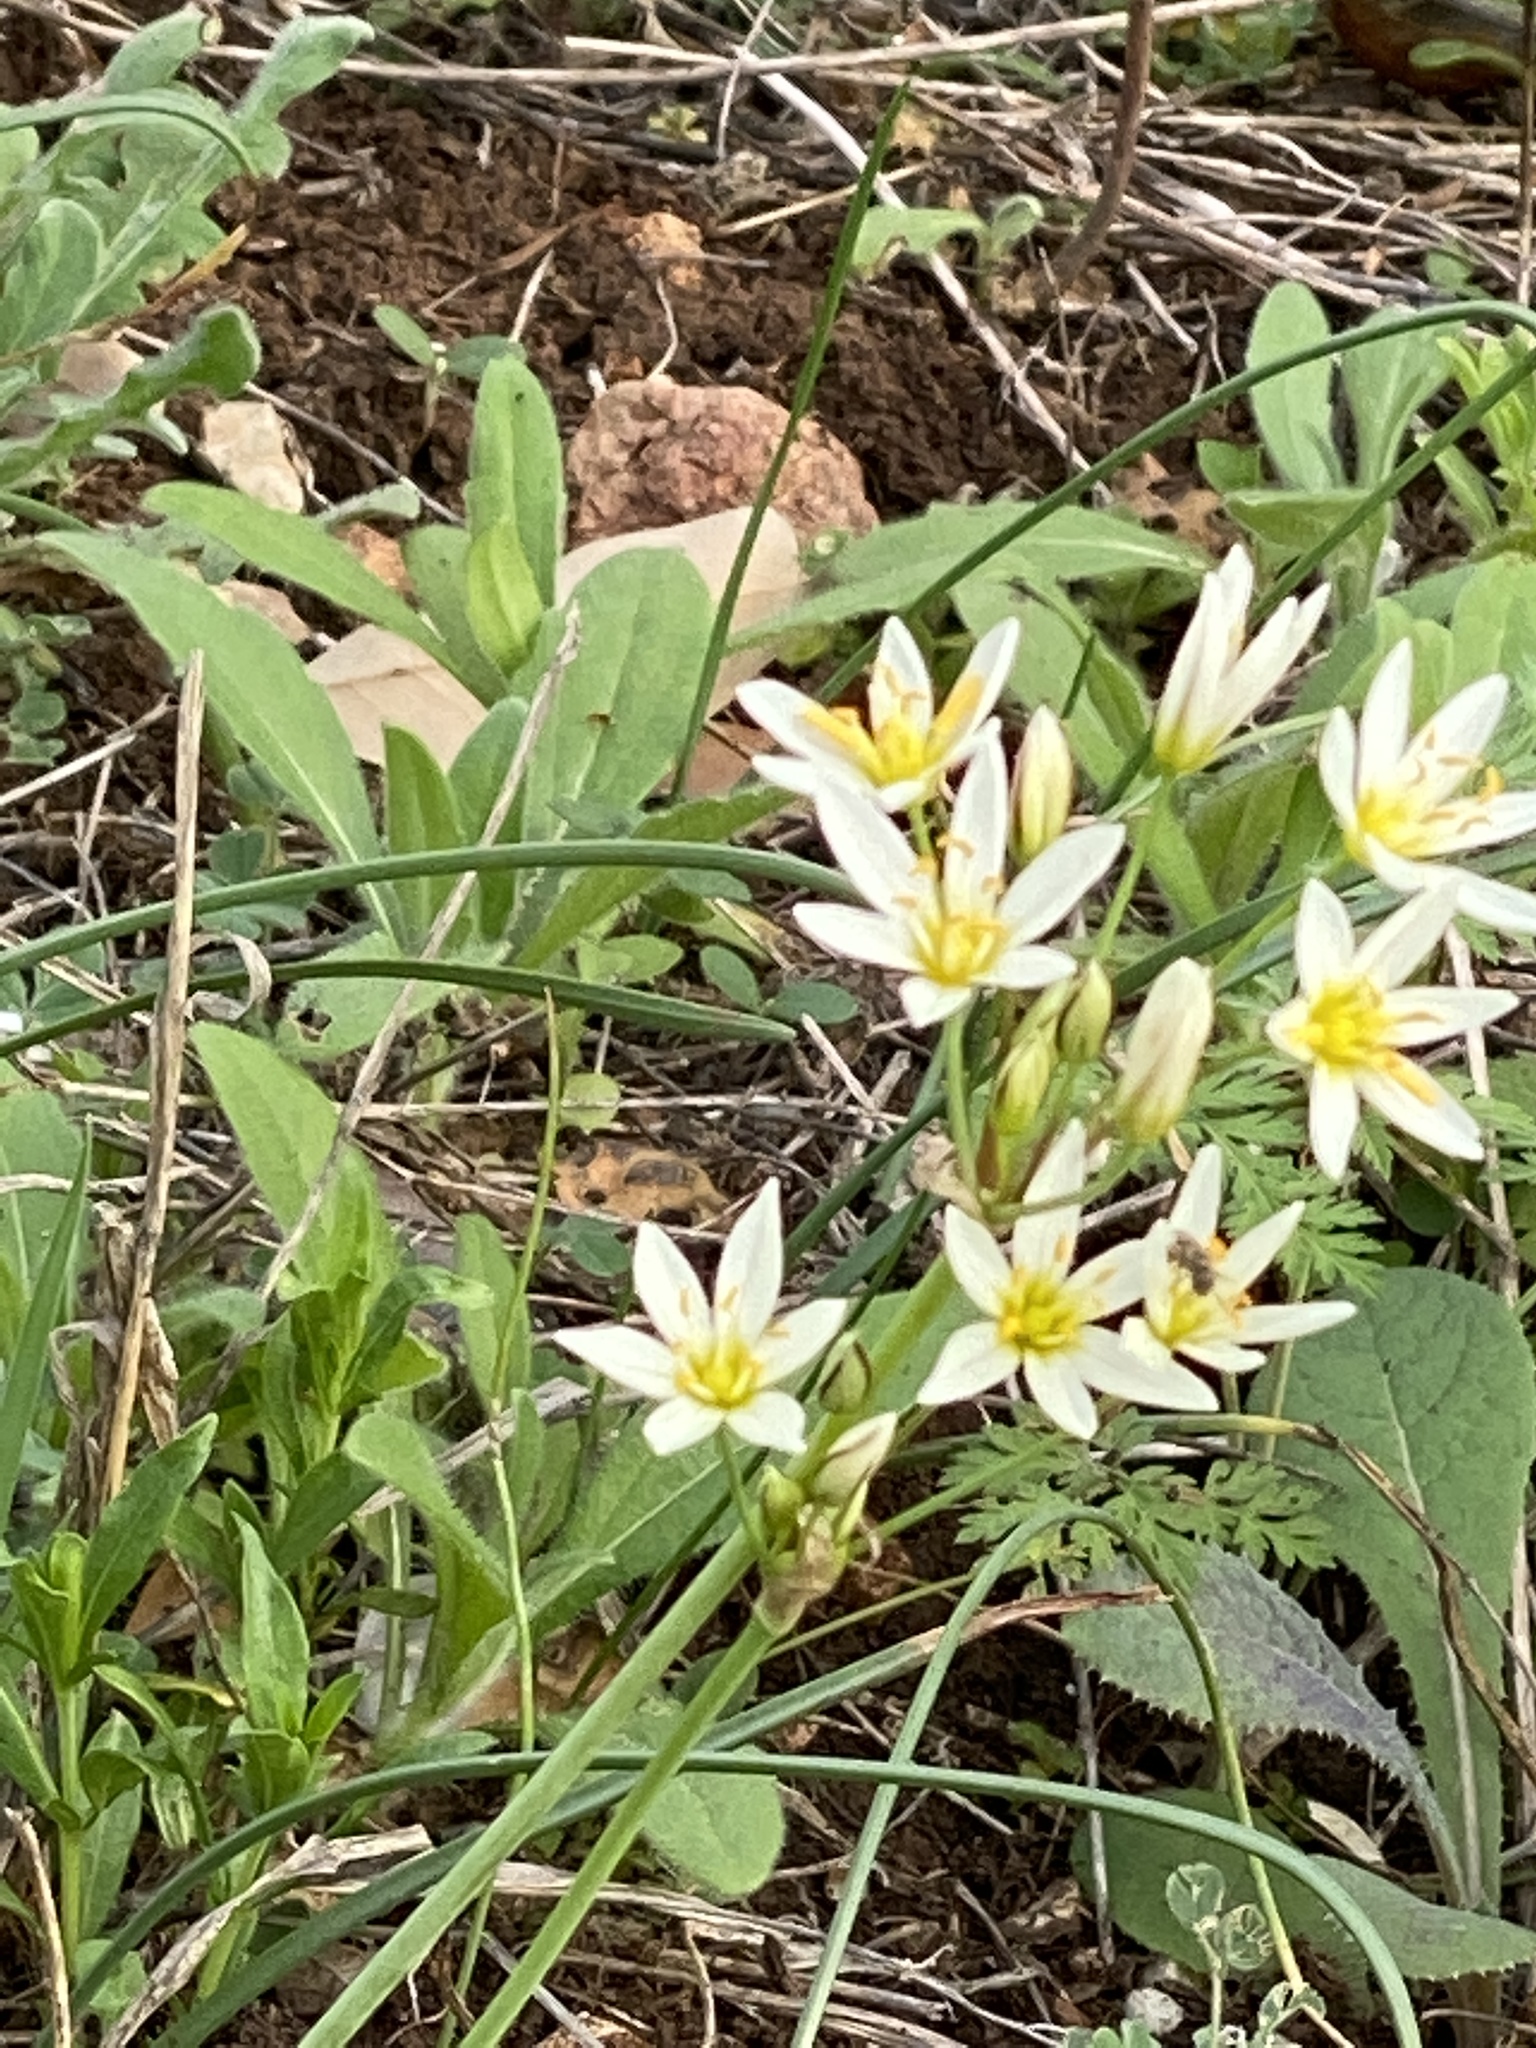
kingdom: Plantae
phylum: Tracheophyta
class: Liliopsida
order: Asparagales
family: Amaryllidaceae
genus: Nothoscordum
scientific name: Nothoscordum bivalve
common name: Crow-poison
